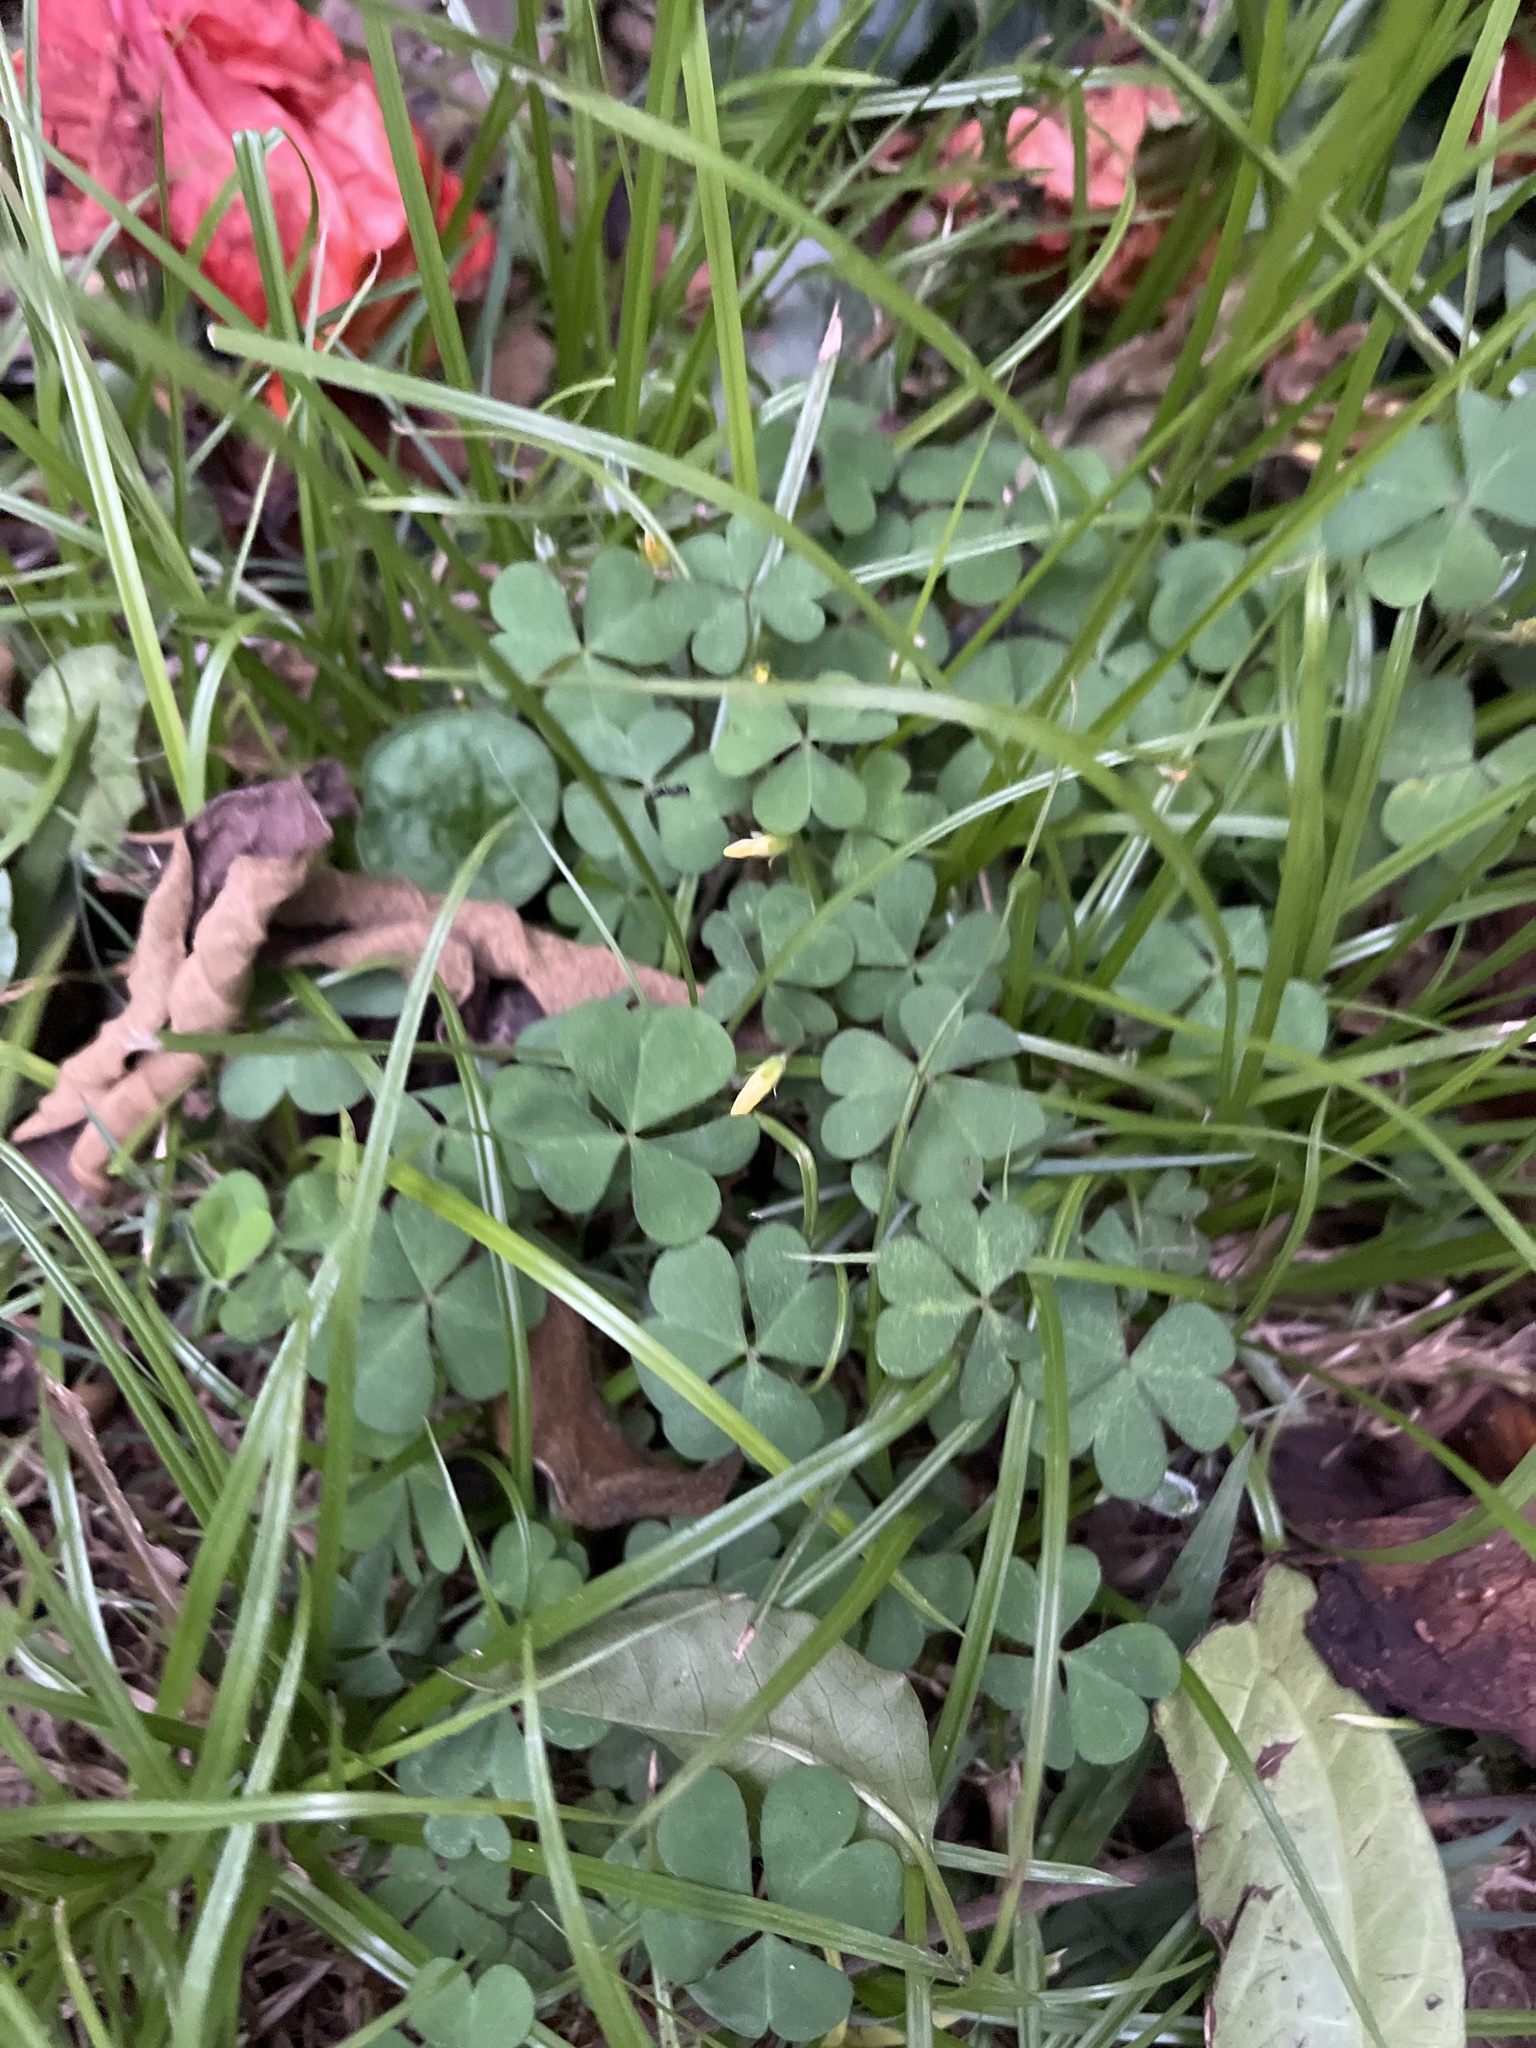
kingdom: Plantae
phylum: Tracheophyta
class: Magnoliopsida
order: Oxalidales
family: Oxalidaceae
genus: Oxalis
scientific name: Oxalis corniculata
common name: Procumbent yellow-sorrel
